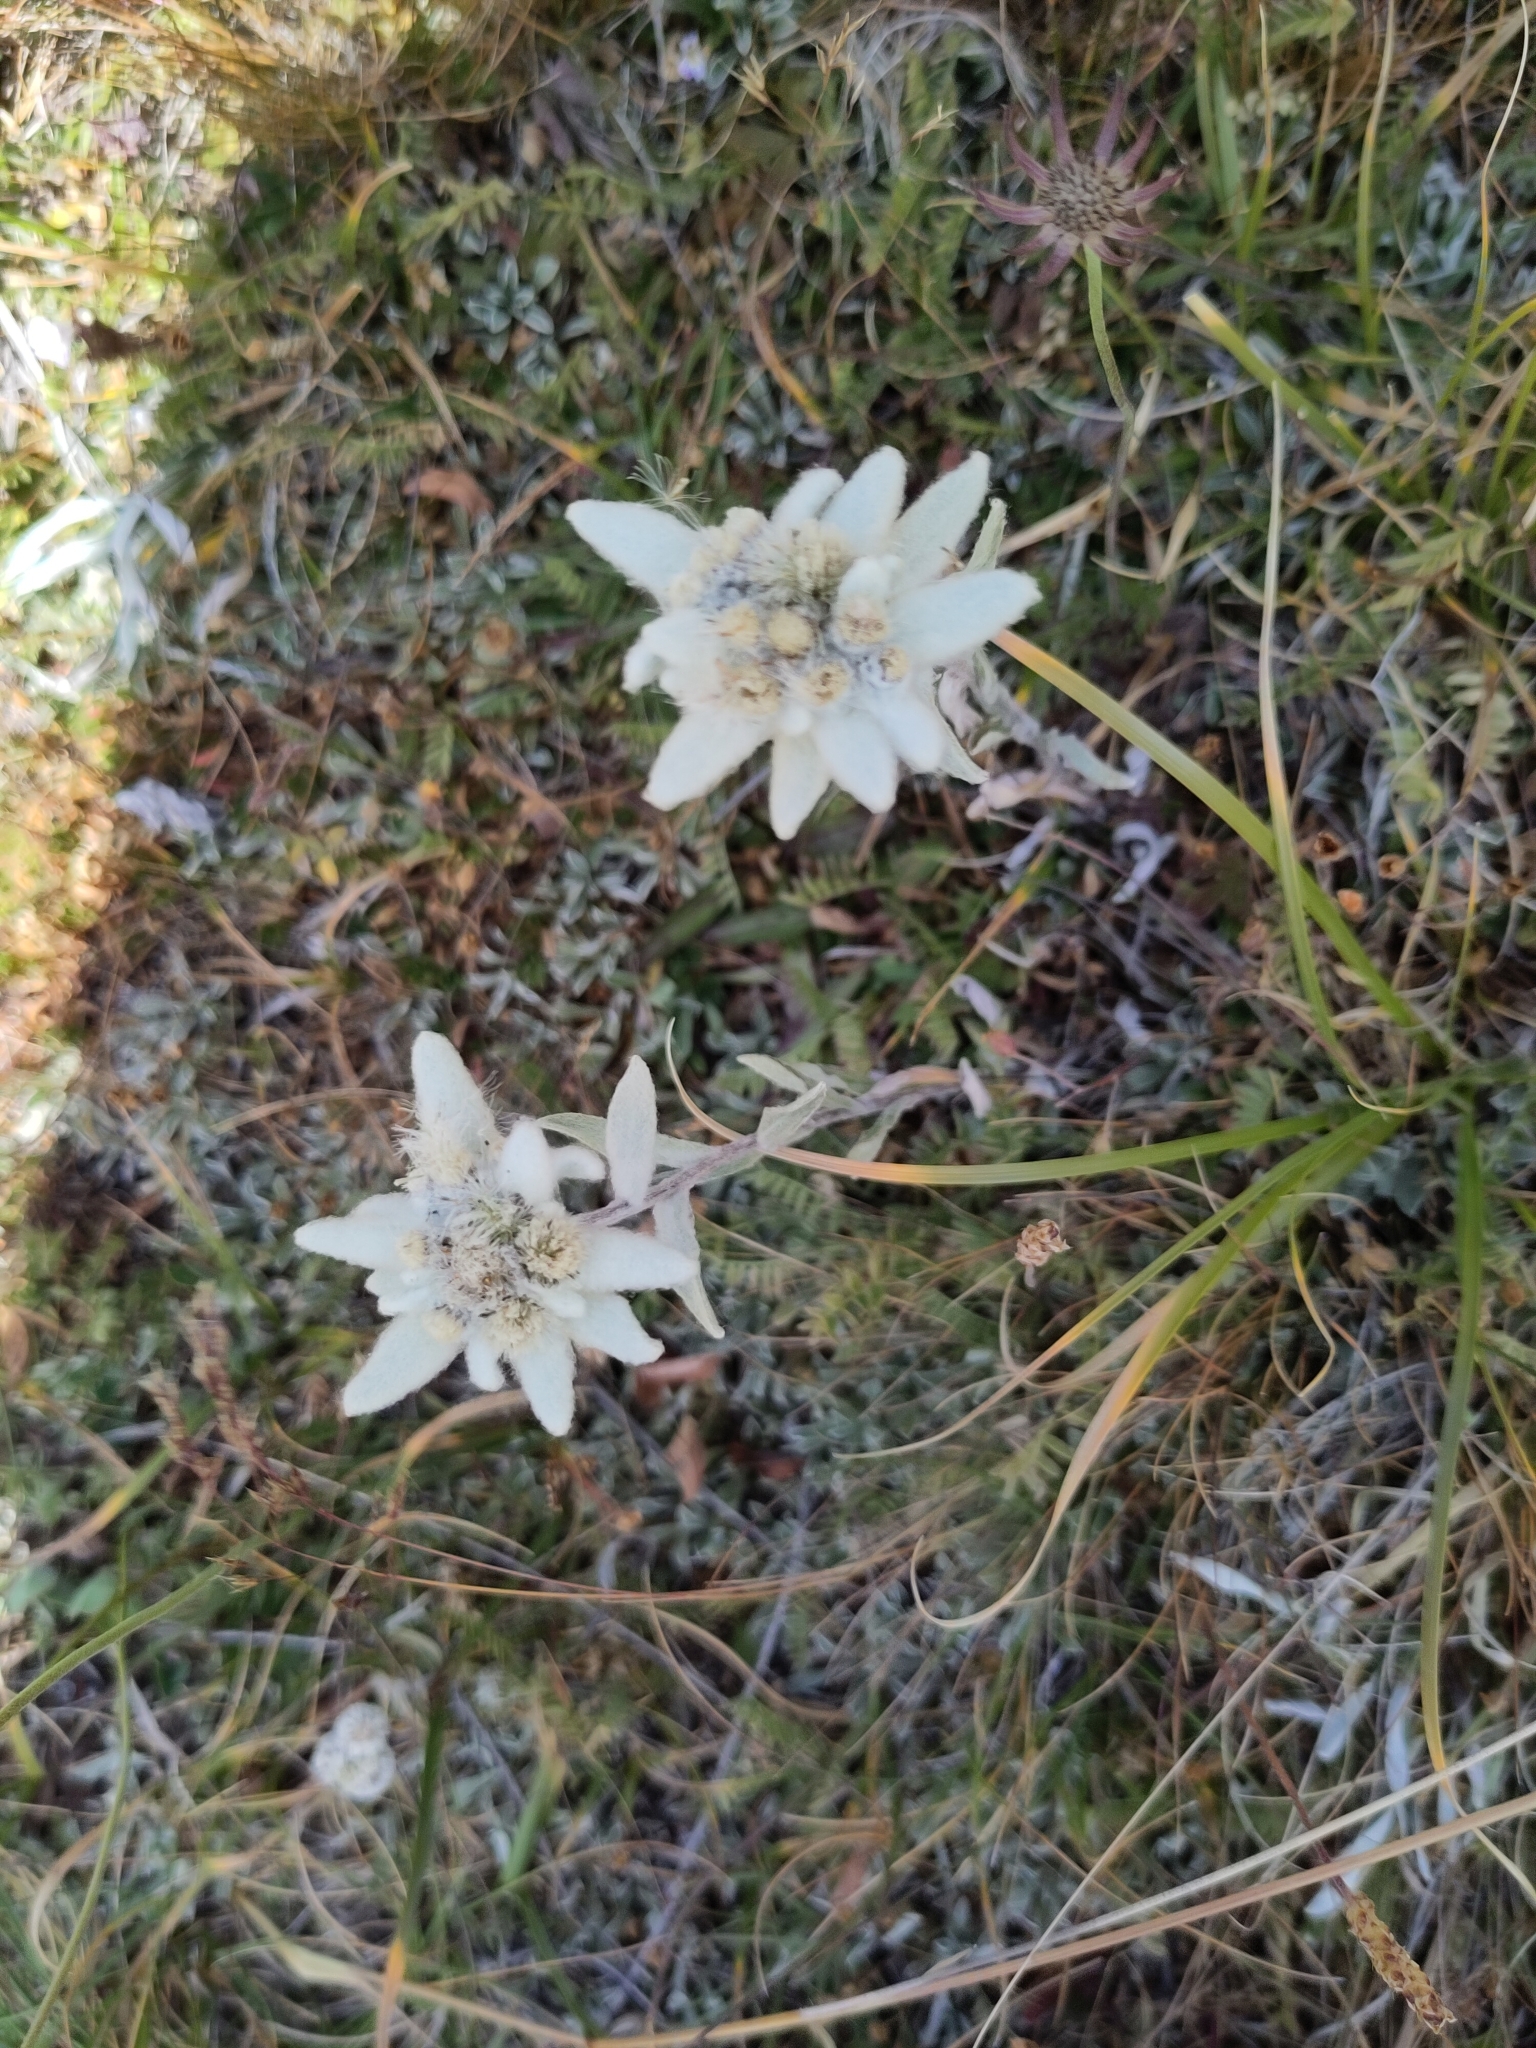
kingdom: Plantae
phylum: Tracheophyta
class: Magnoliopsida
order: Asterales
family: Asteraceae
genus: Leontopodium
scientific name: Leontopodium nivale
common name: Edelweiss
